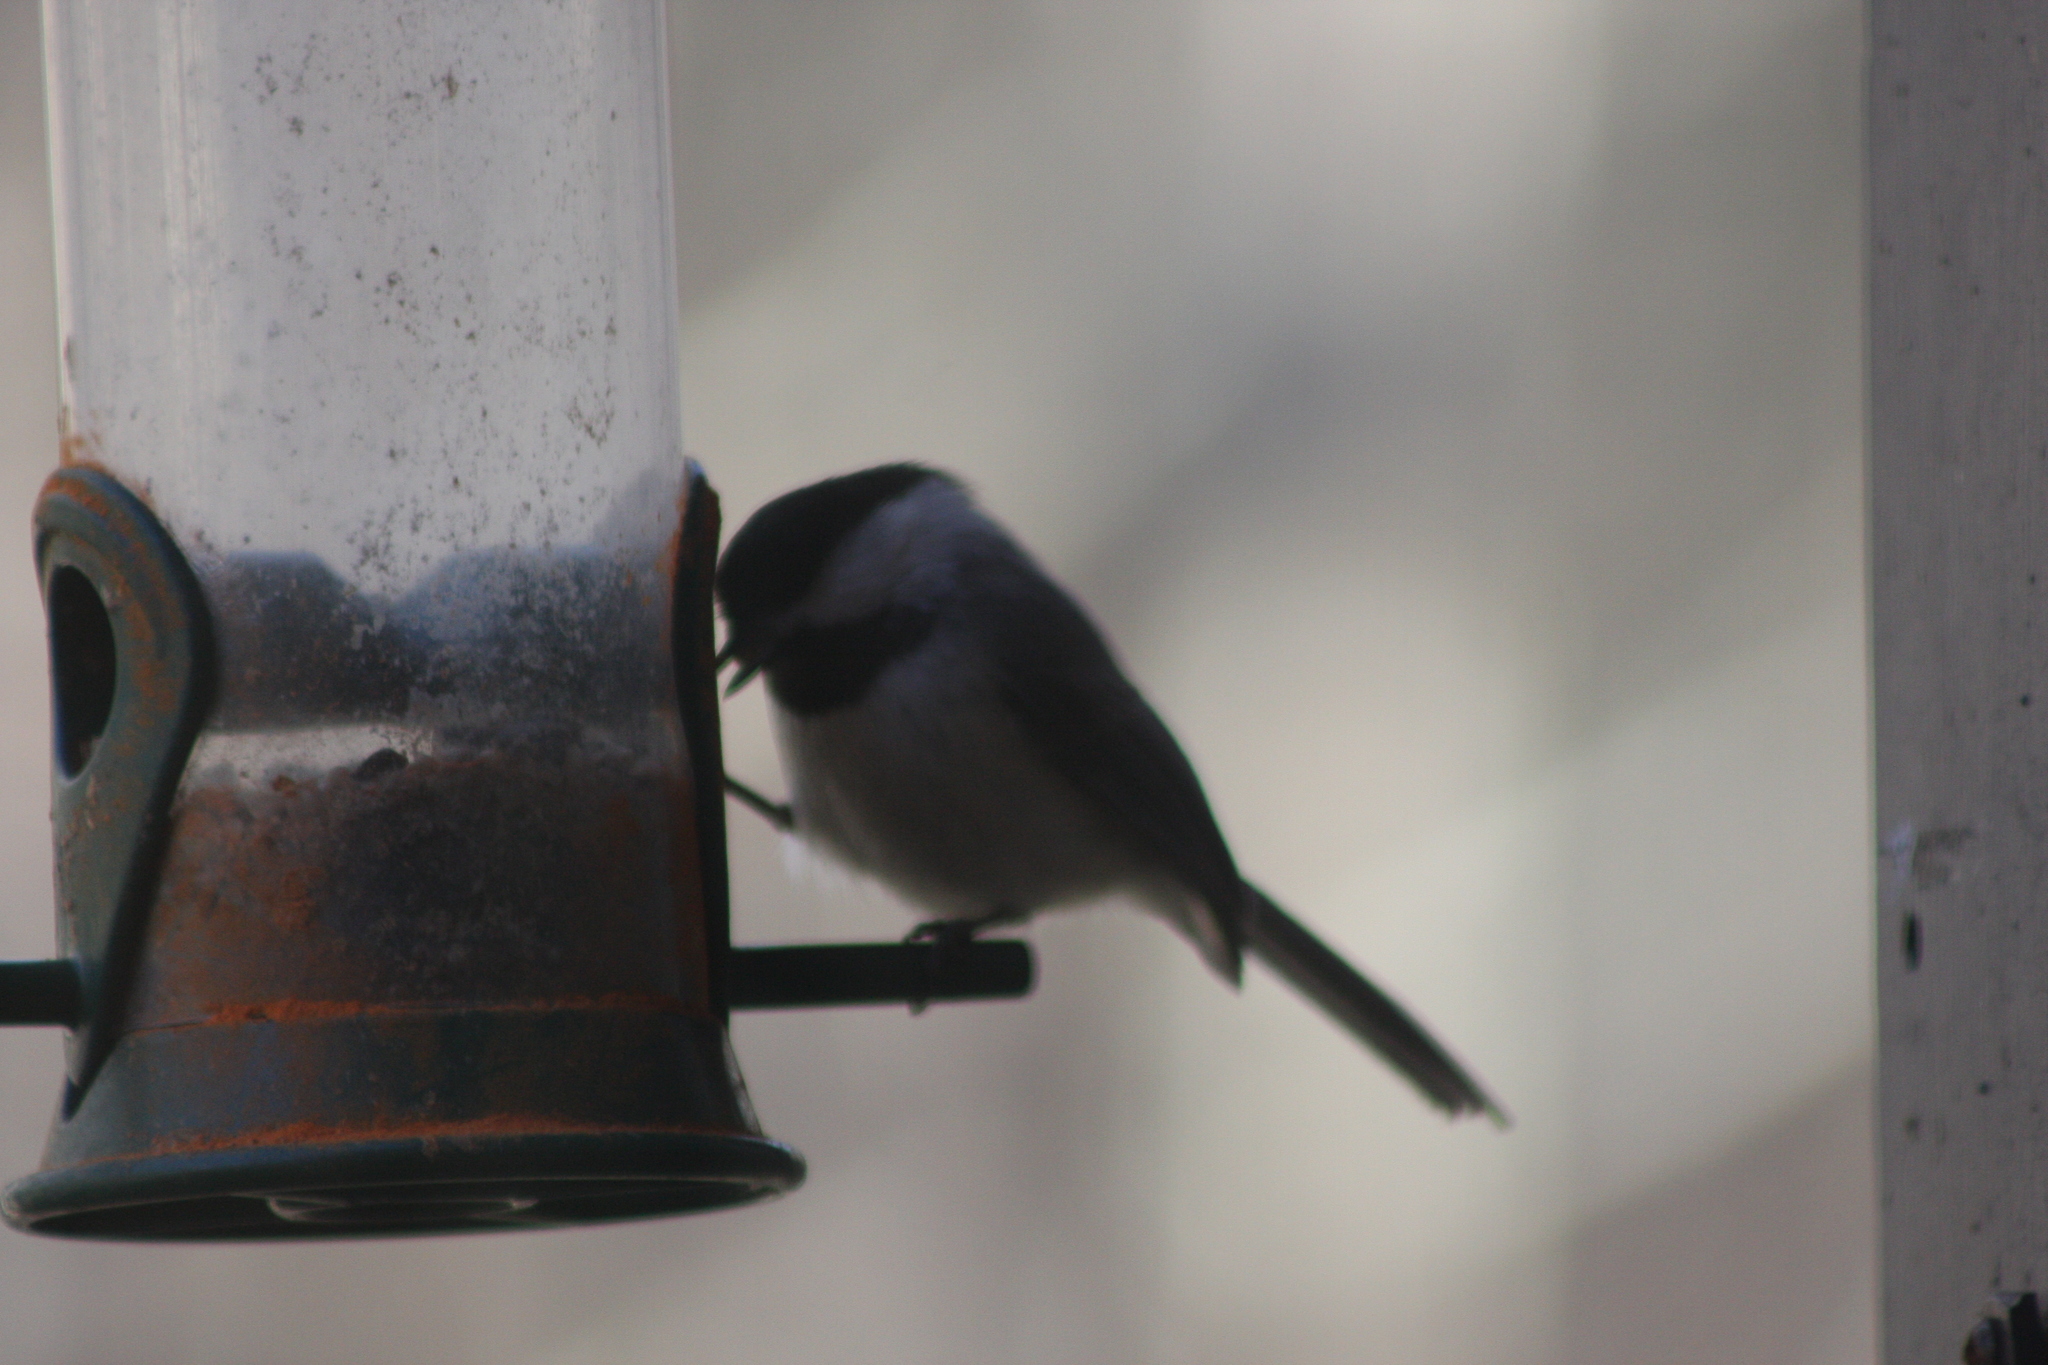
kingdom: Animalia
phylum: Chordata
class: Aves
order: Passeriformes
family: Paridae
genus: Poecile
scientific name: Poecile atricapillus
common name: Black-capped chickadee
